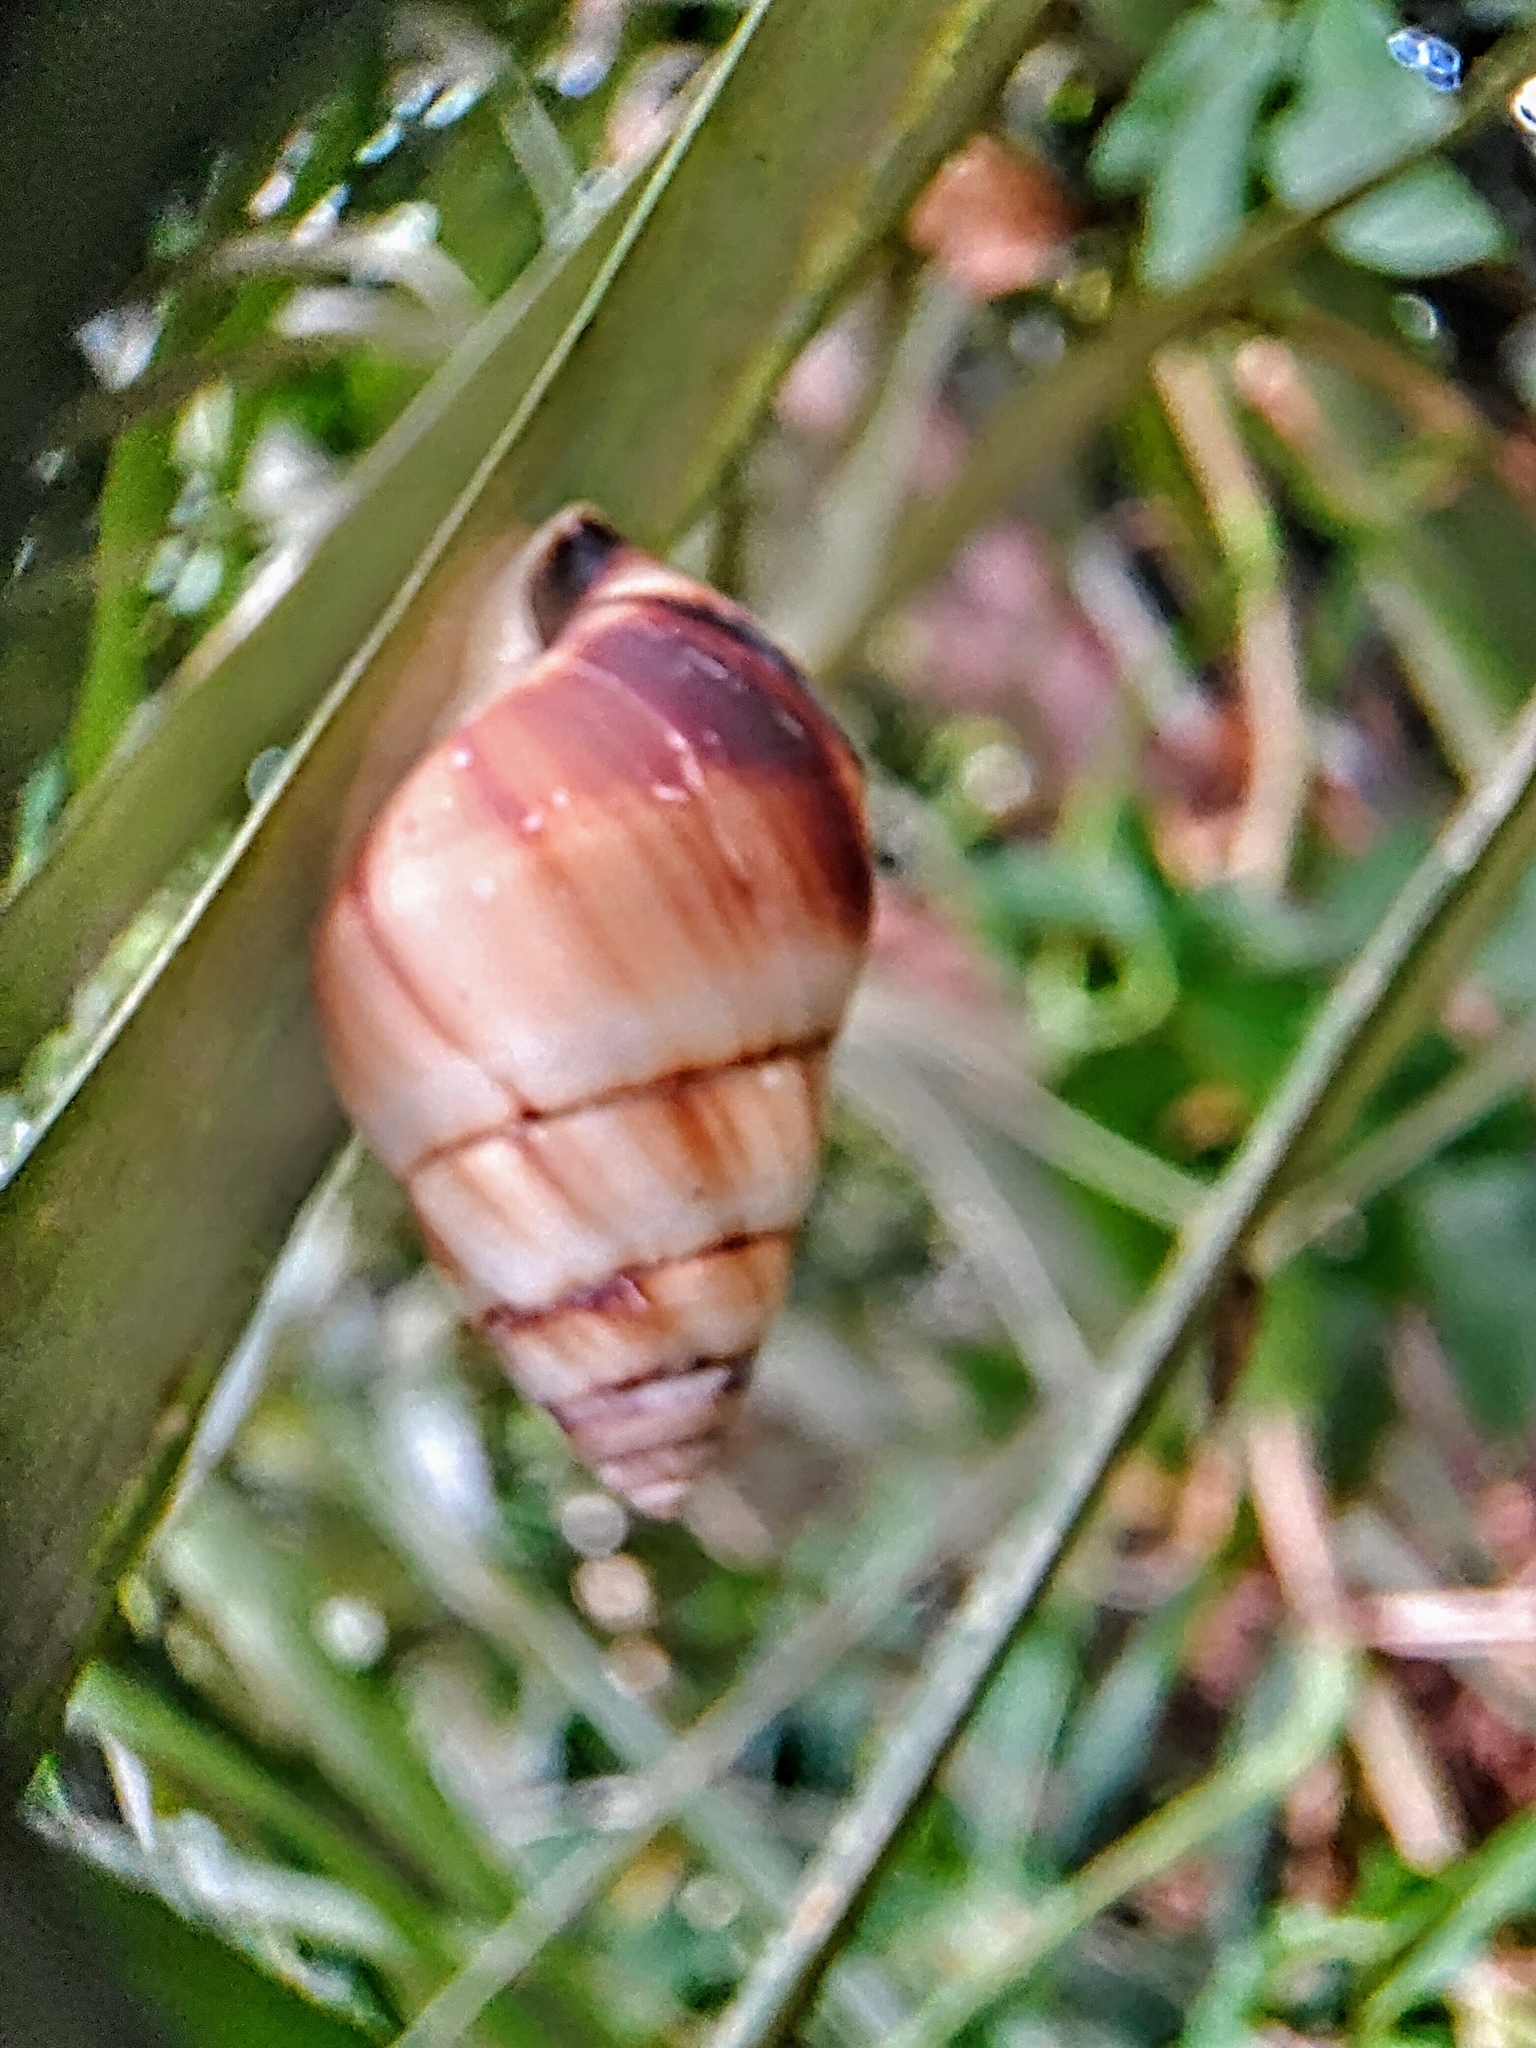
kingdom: Animalia
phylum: Mollusca
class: Gastropoda
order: Stylommatophora
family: Camaenidae
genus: Amphidromus
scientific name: Amphidromus inversus
